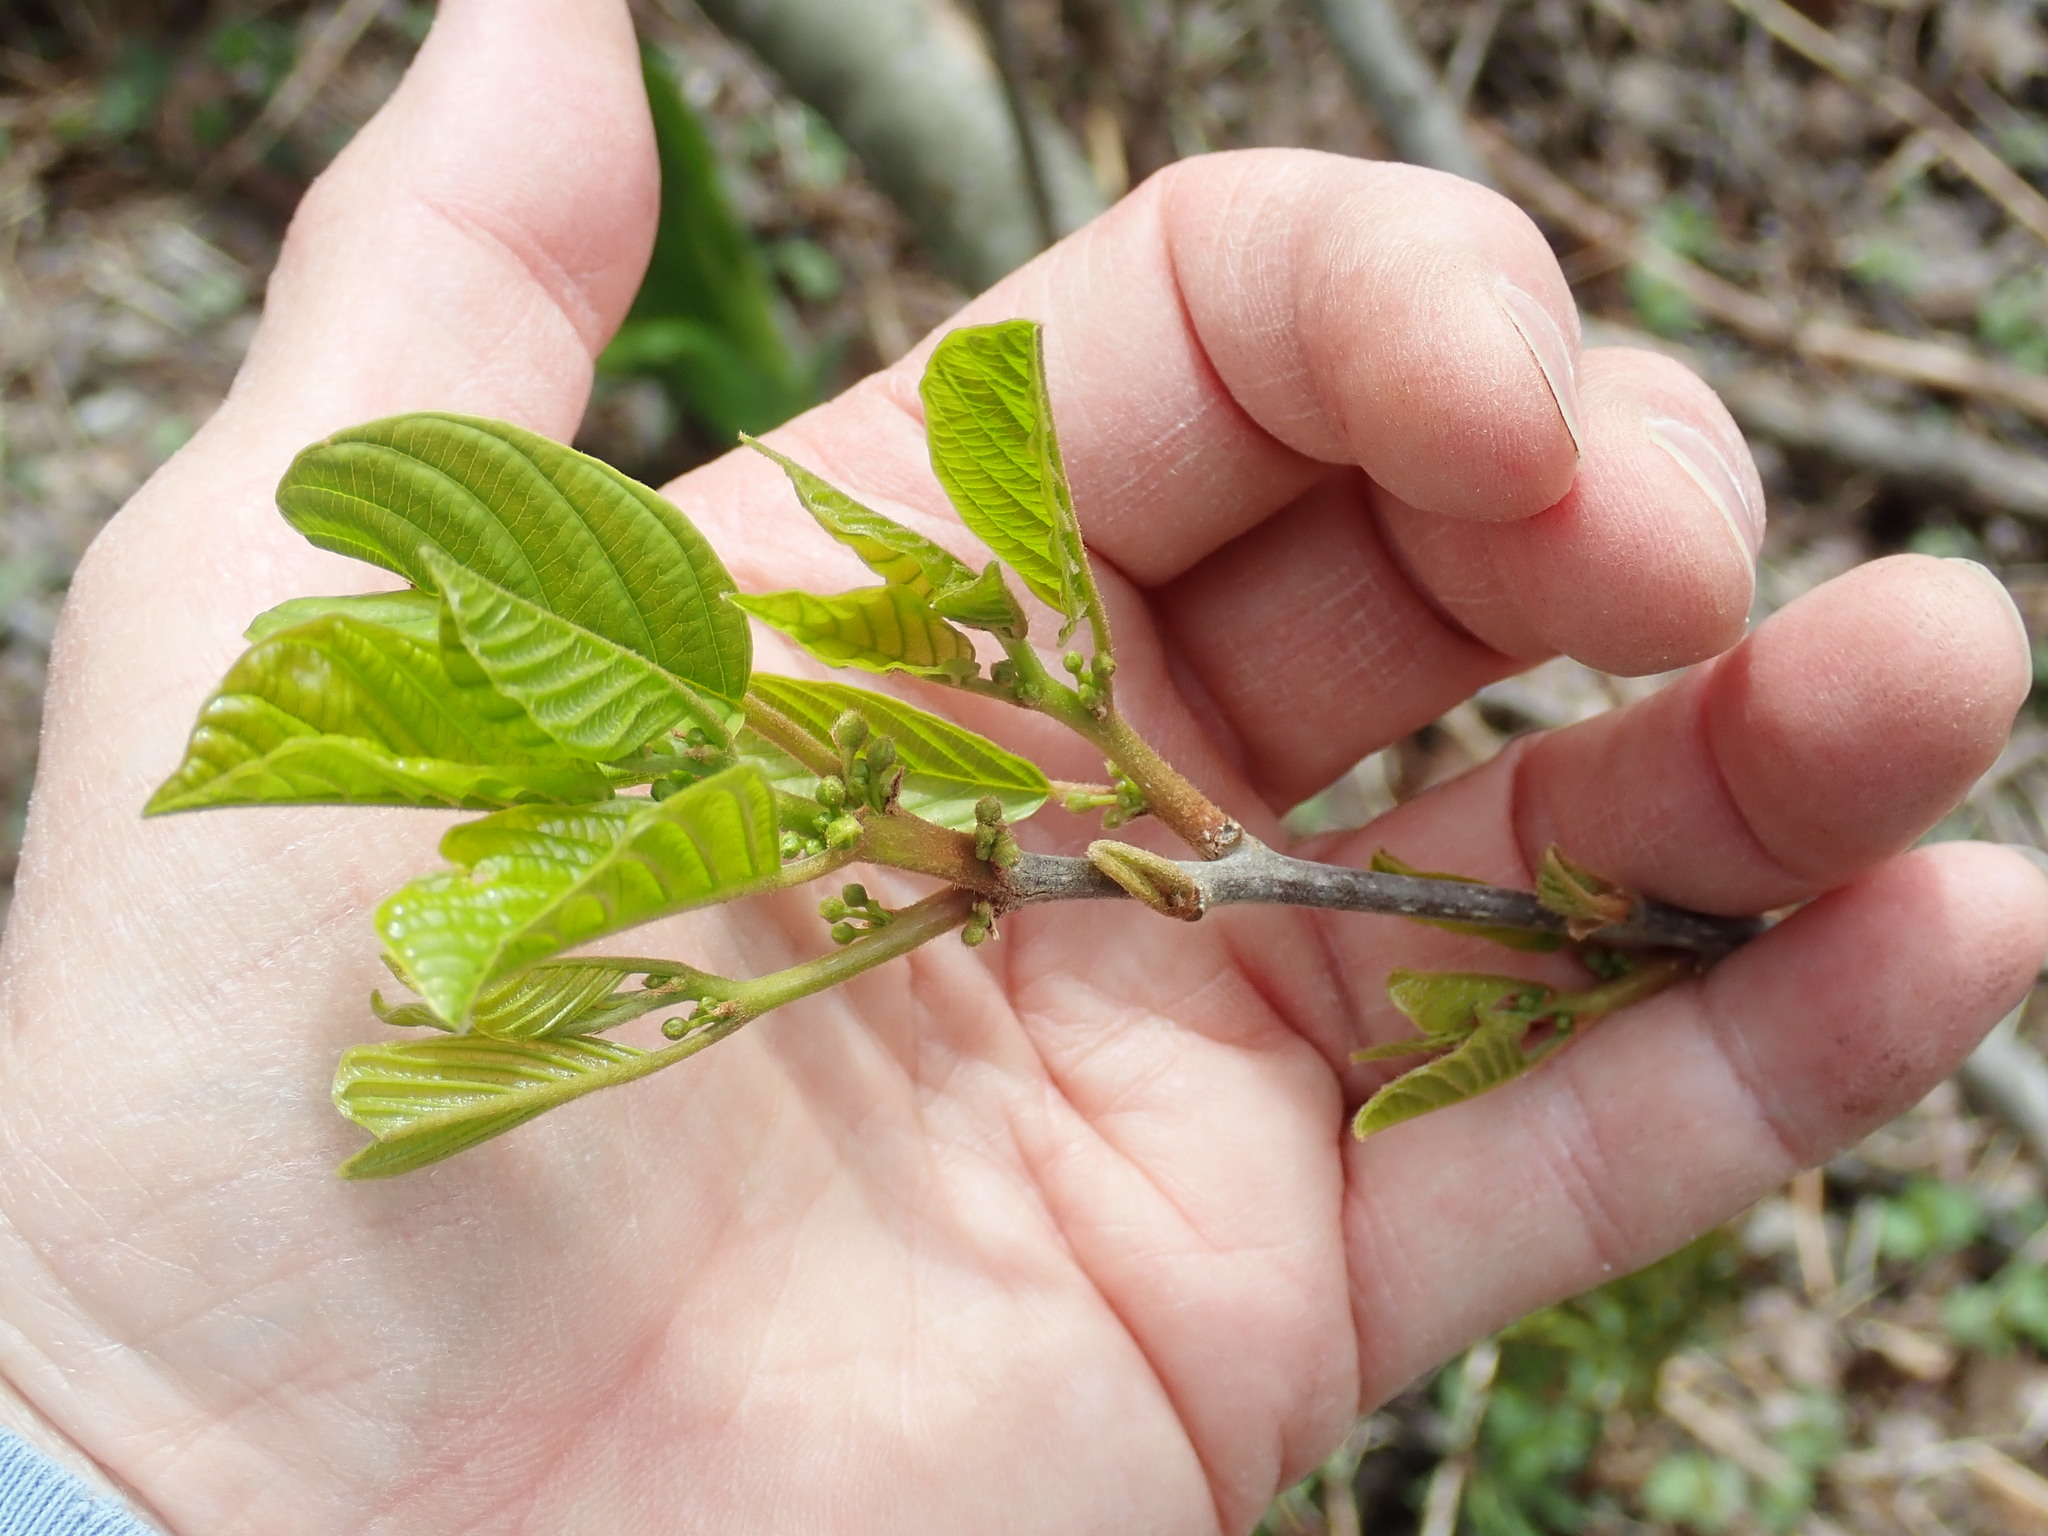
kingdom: Plantae
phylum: Tracheophyta
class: Magnoliopsida
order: Rosales
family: Rhamnaceae
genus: Frangula
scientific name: Frangula alnus
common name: Alder buckthorn
